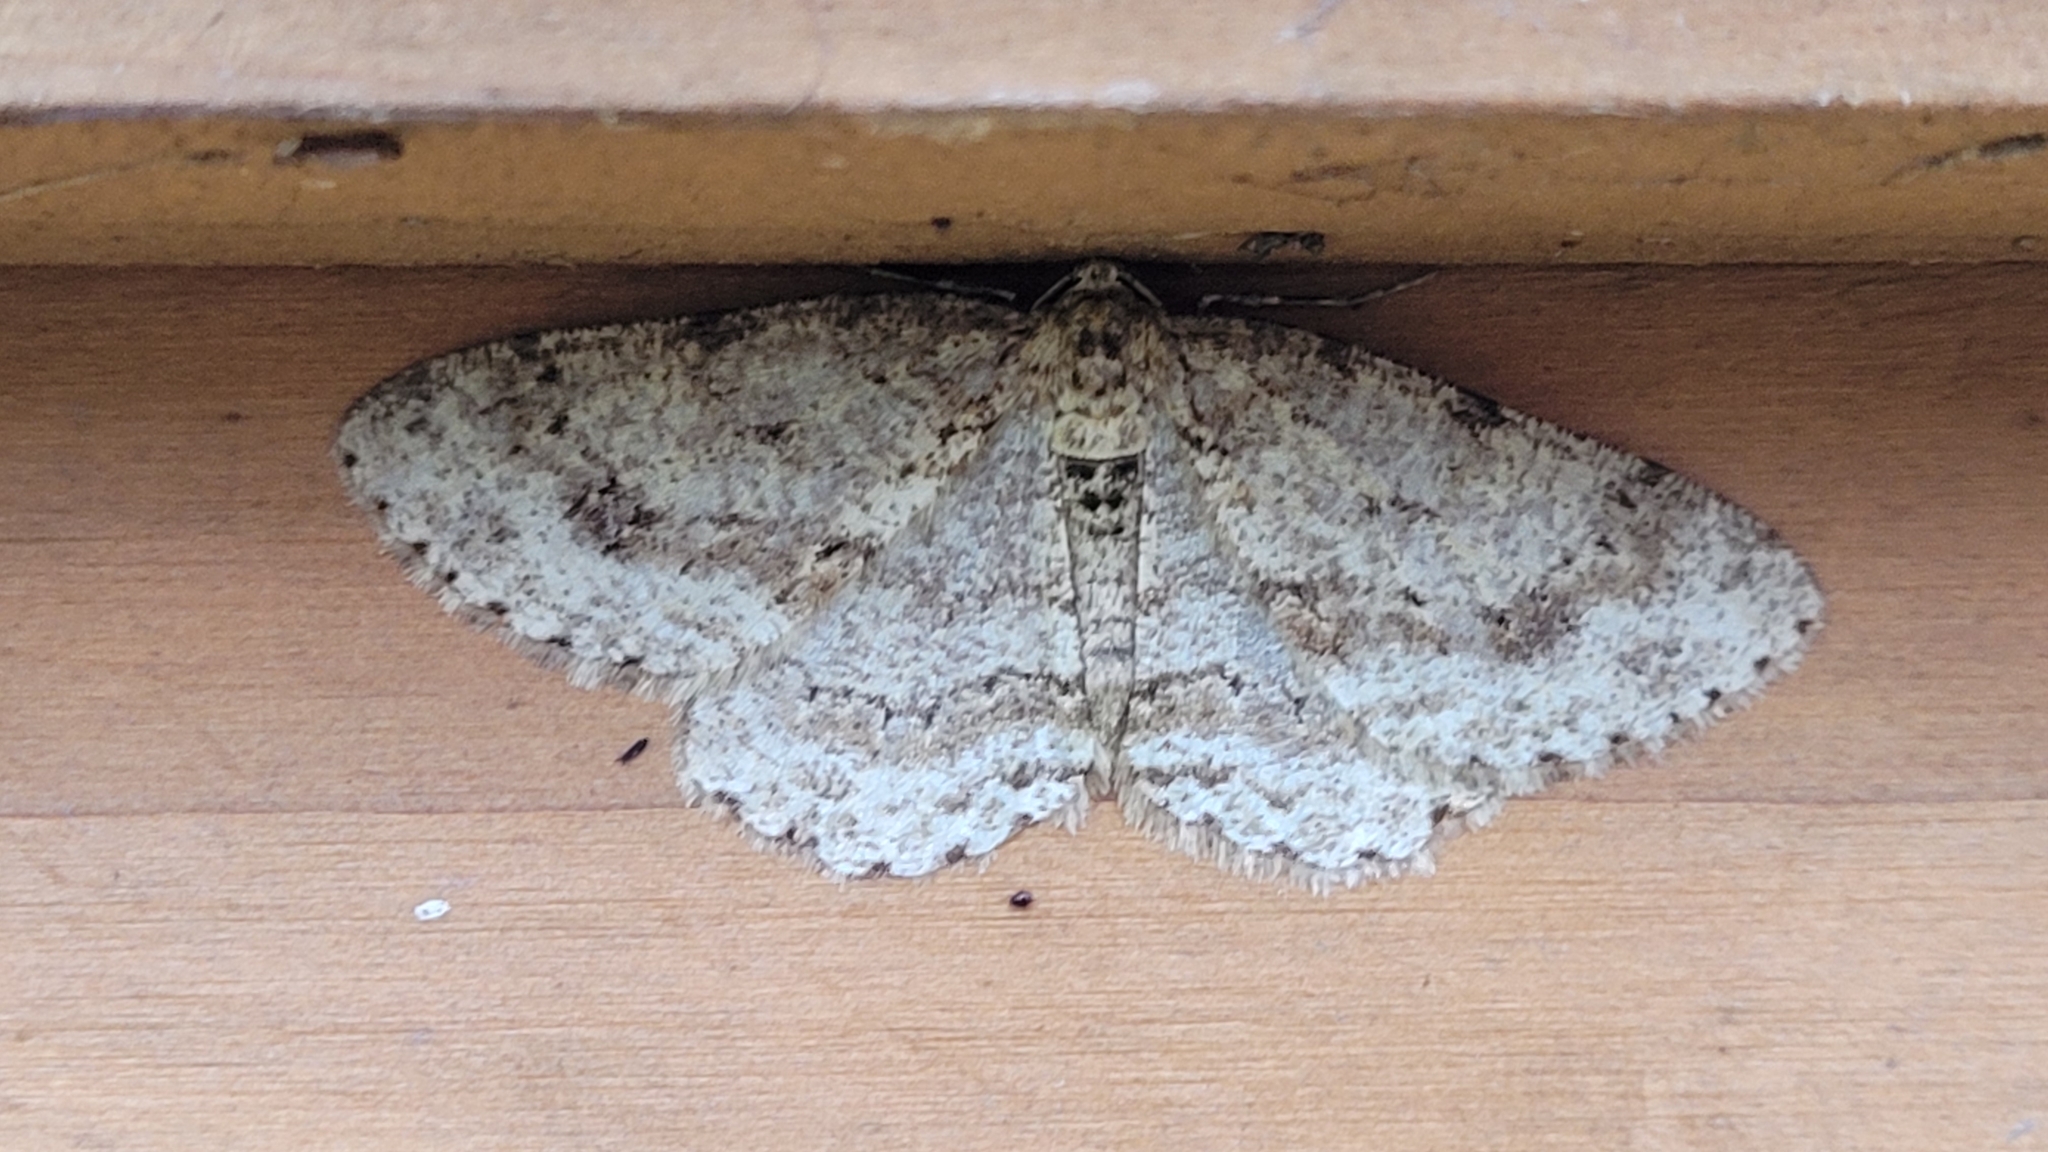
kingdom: Animalia
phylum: Arthropoda
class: Insecta
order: Lepidoptera
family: Geometridae
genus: Ectropis
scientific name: Ectropis crepuscularia
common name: Engrailed
